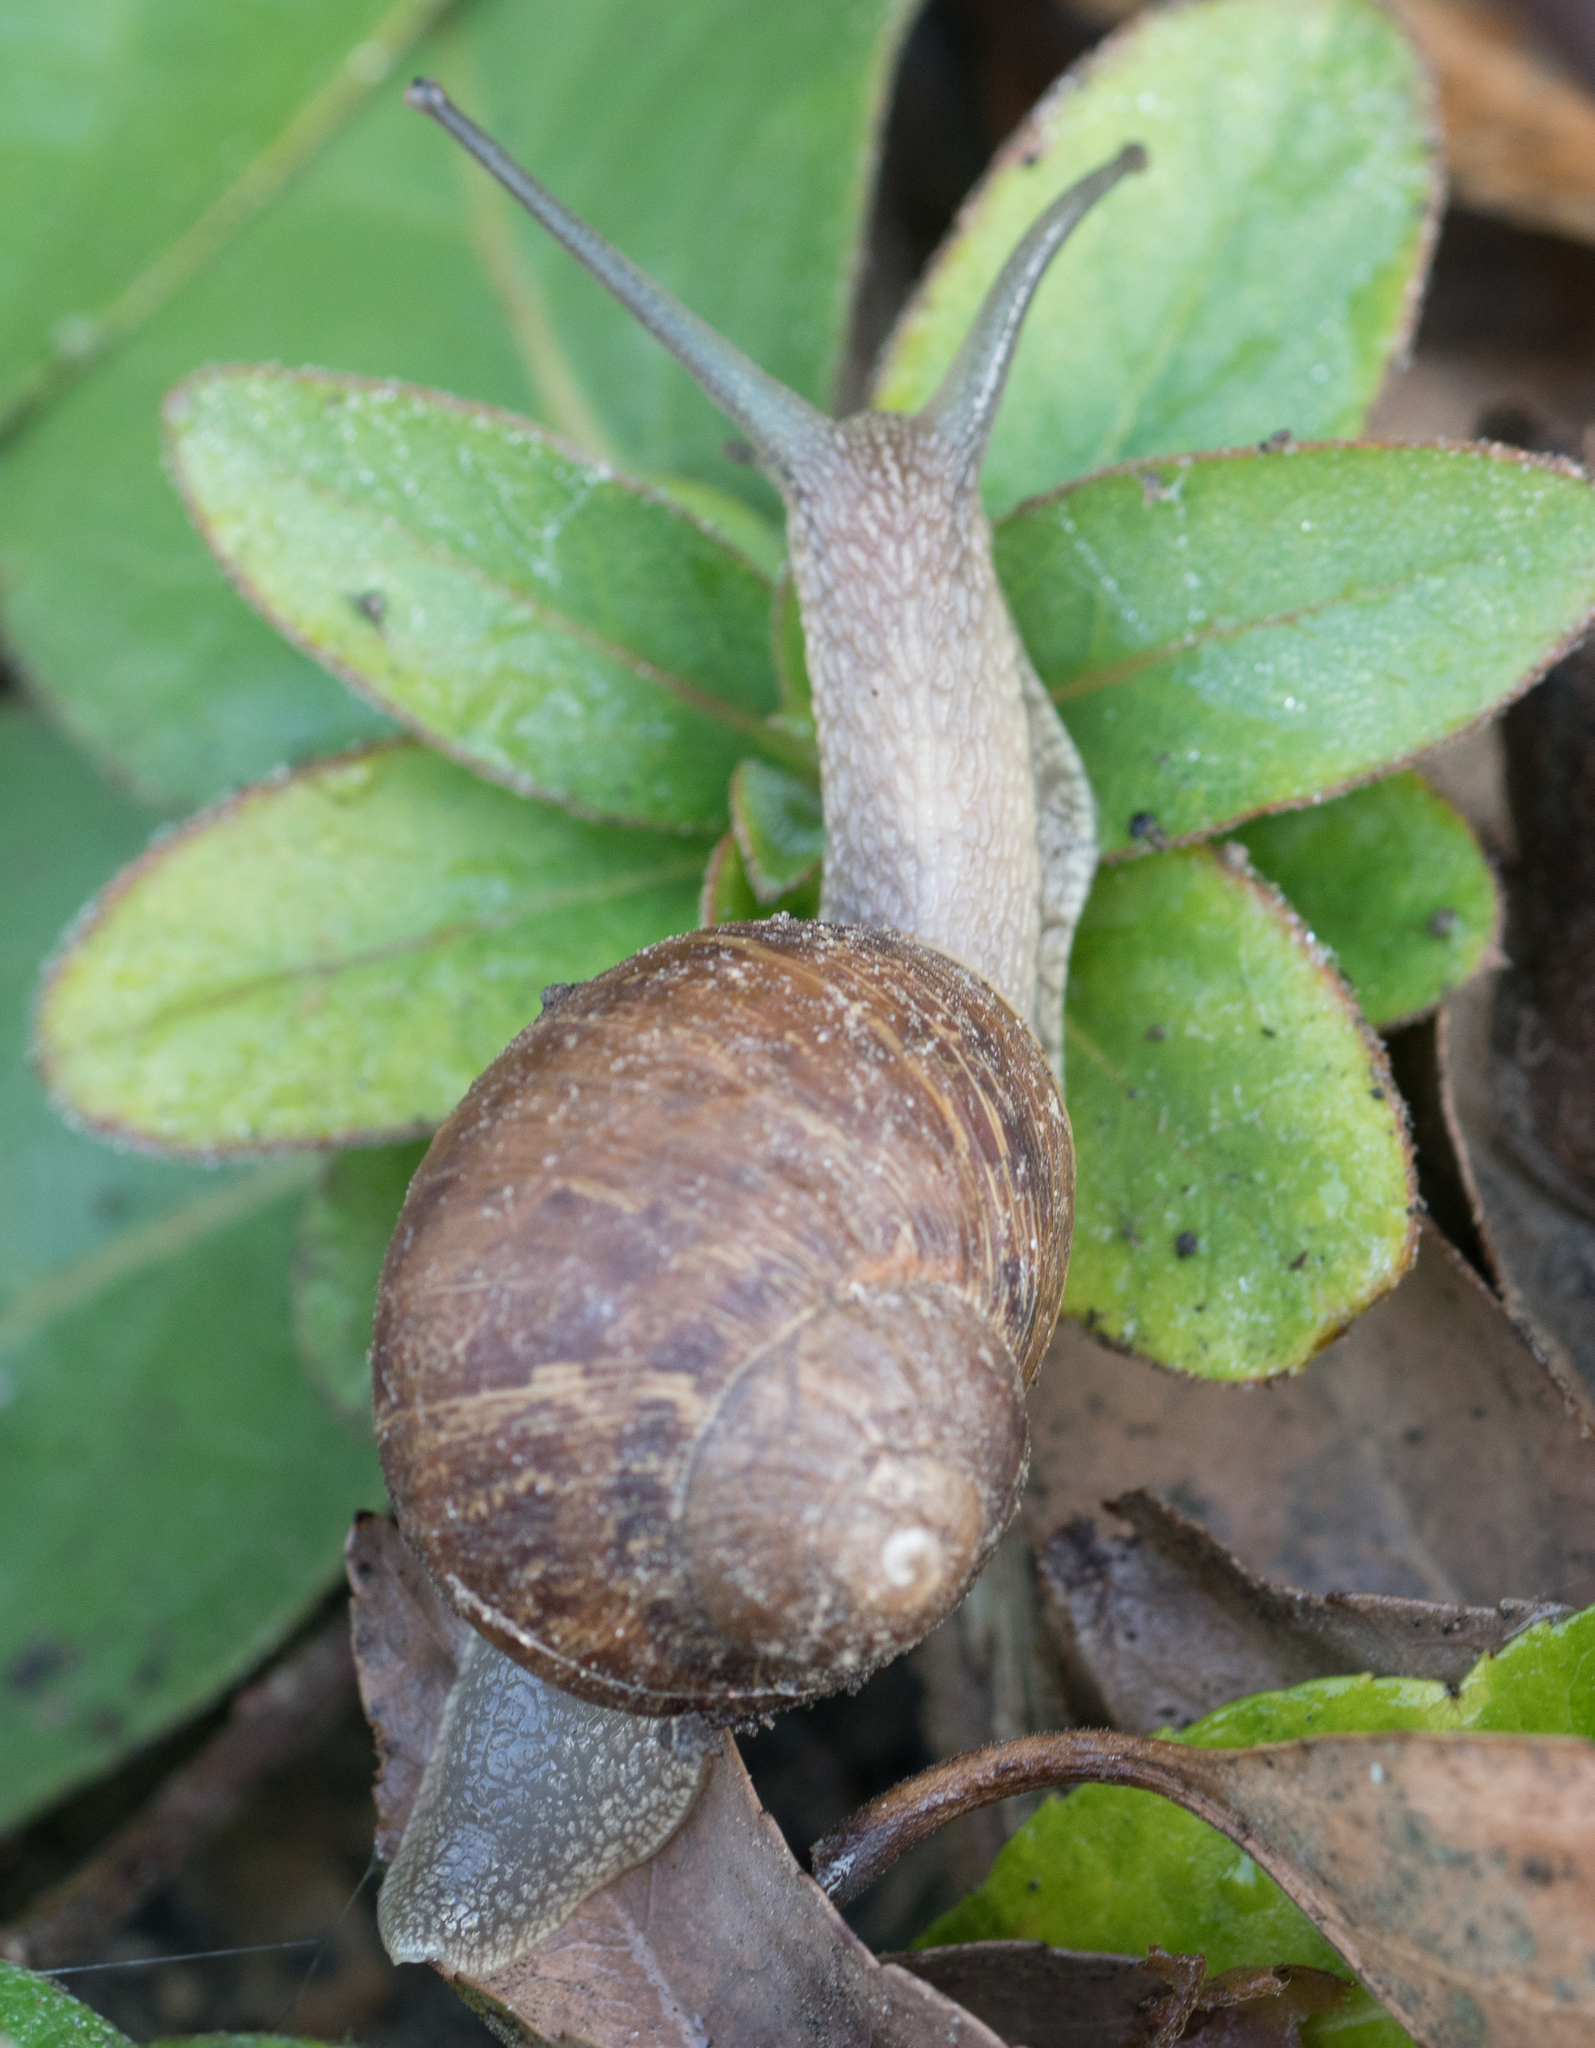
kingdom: Animalia
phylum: Mollusca
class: Gastropoda
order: Stylommatophora
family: Helicidae
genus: Cornu
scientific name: Cornu aspersum
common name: Brown garden snail
